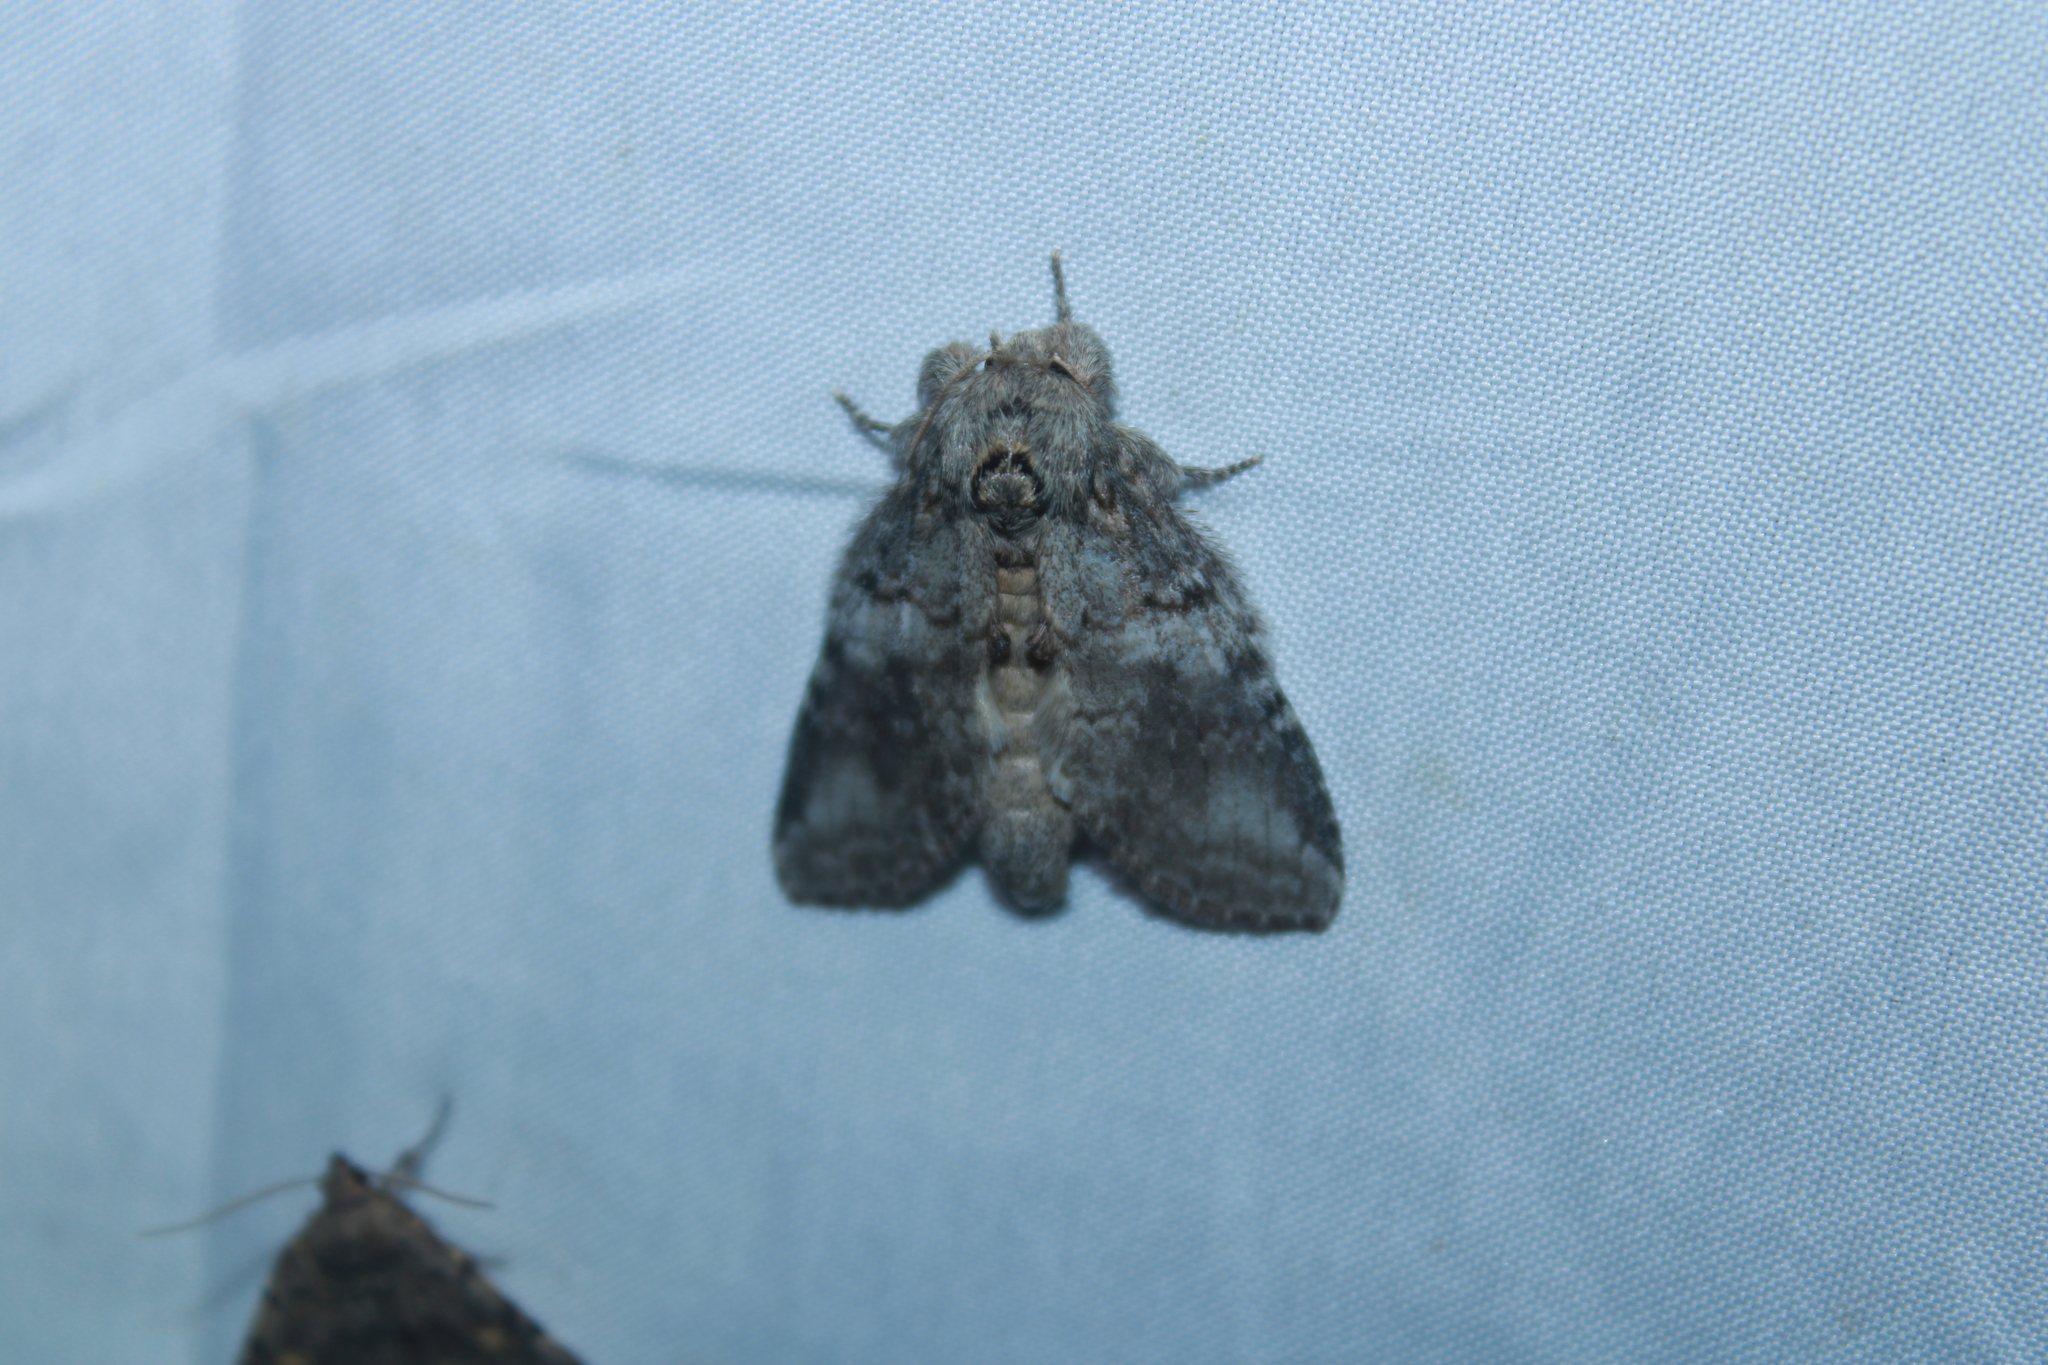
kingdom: Animalia
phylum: Arthropoda
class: Insecta
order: Lepidoptera
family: Notodontidae
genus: Peridea
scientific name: Peridea angulosa
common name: Angulose prominent
